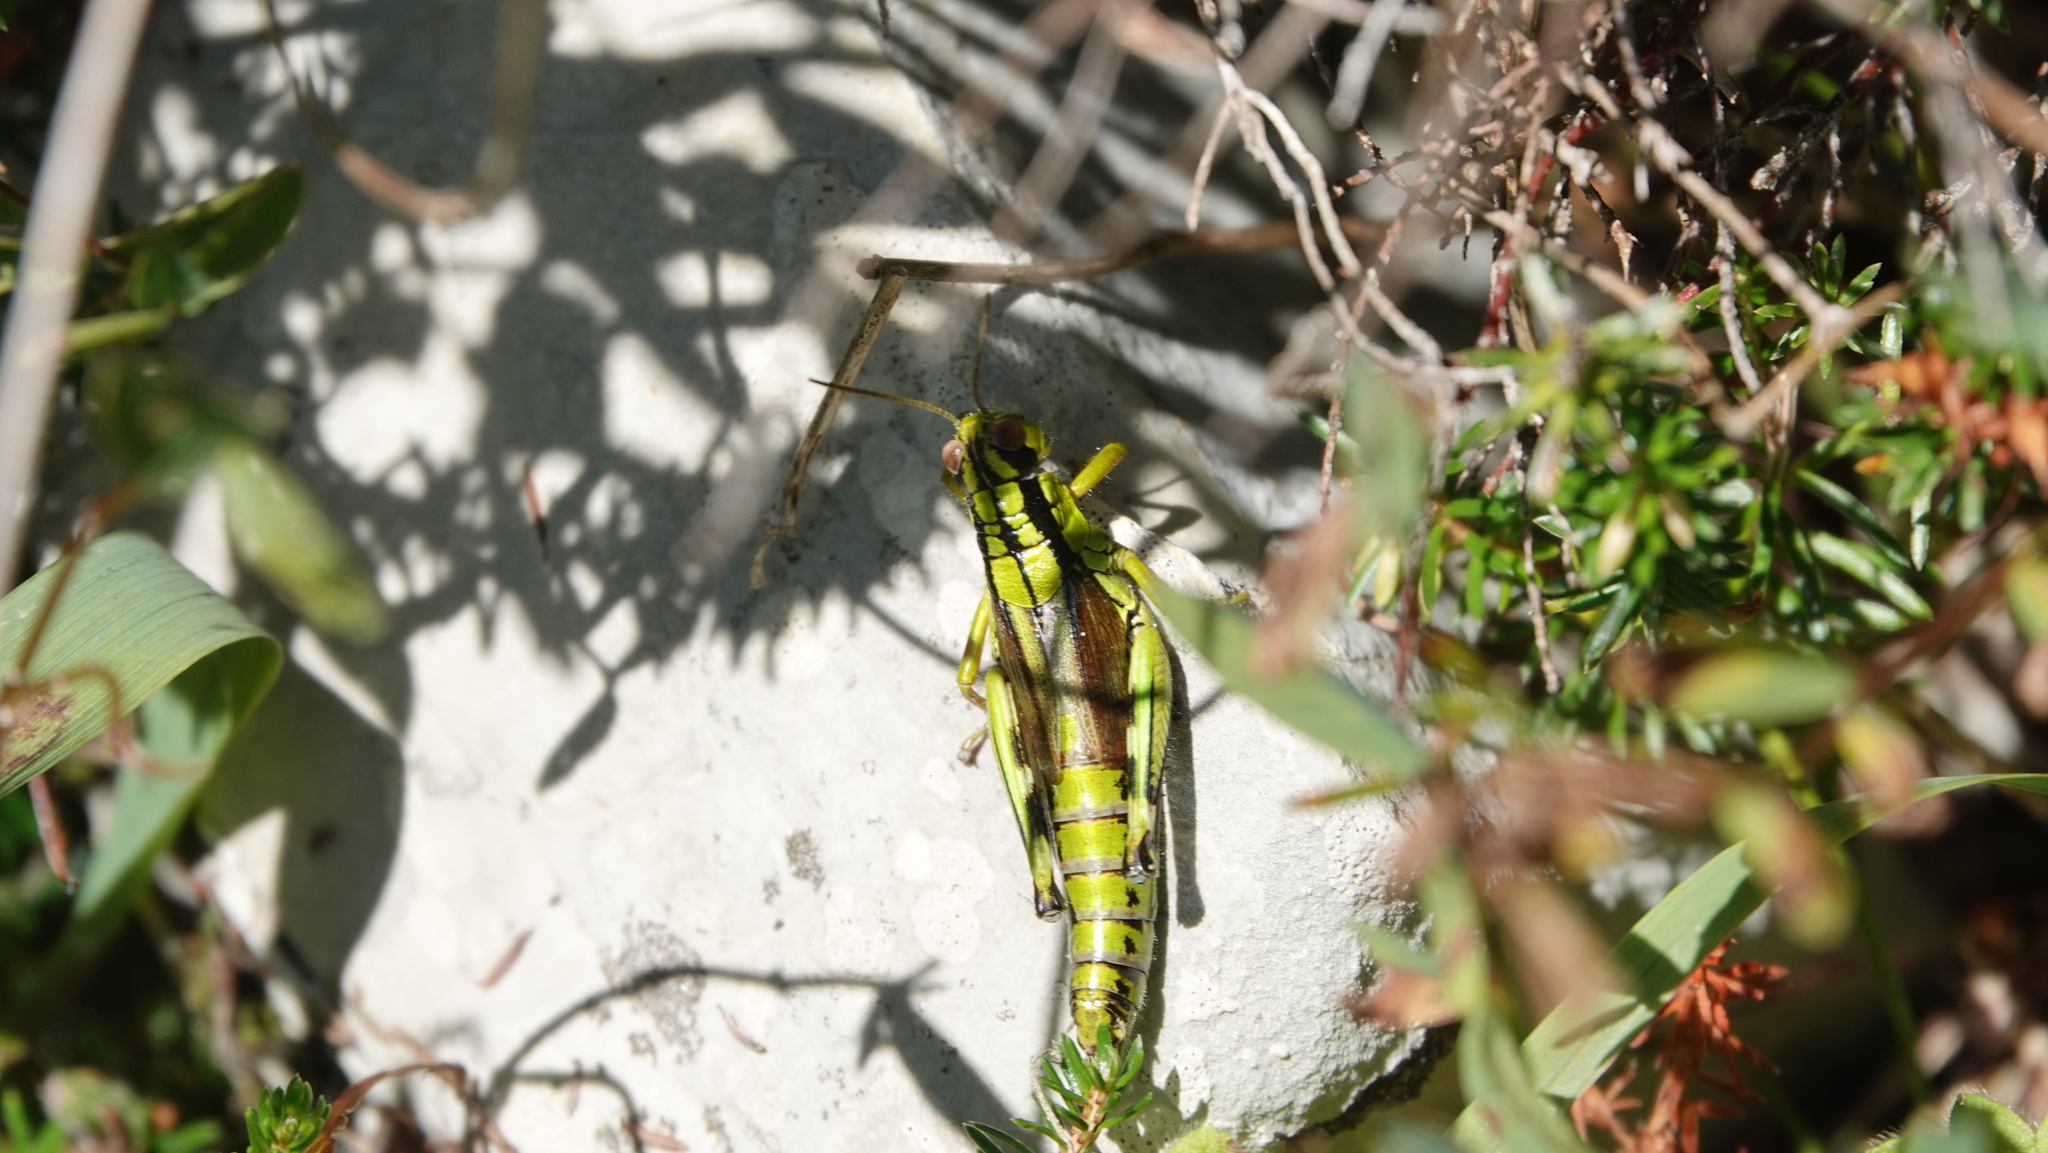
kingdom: Animalia
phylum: Arthropoda
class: Insecta
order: Orthoptera
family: Acrididae
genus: Miramella
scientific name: Miramella irena
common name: Long-winged mountain grasshopper
